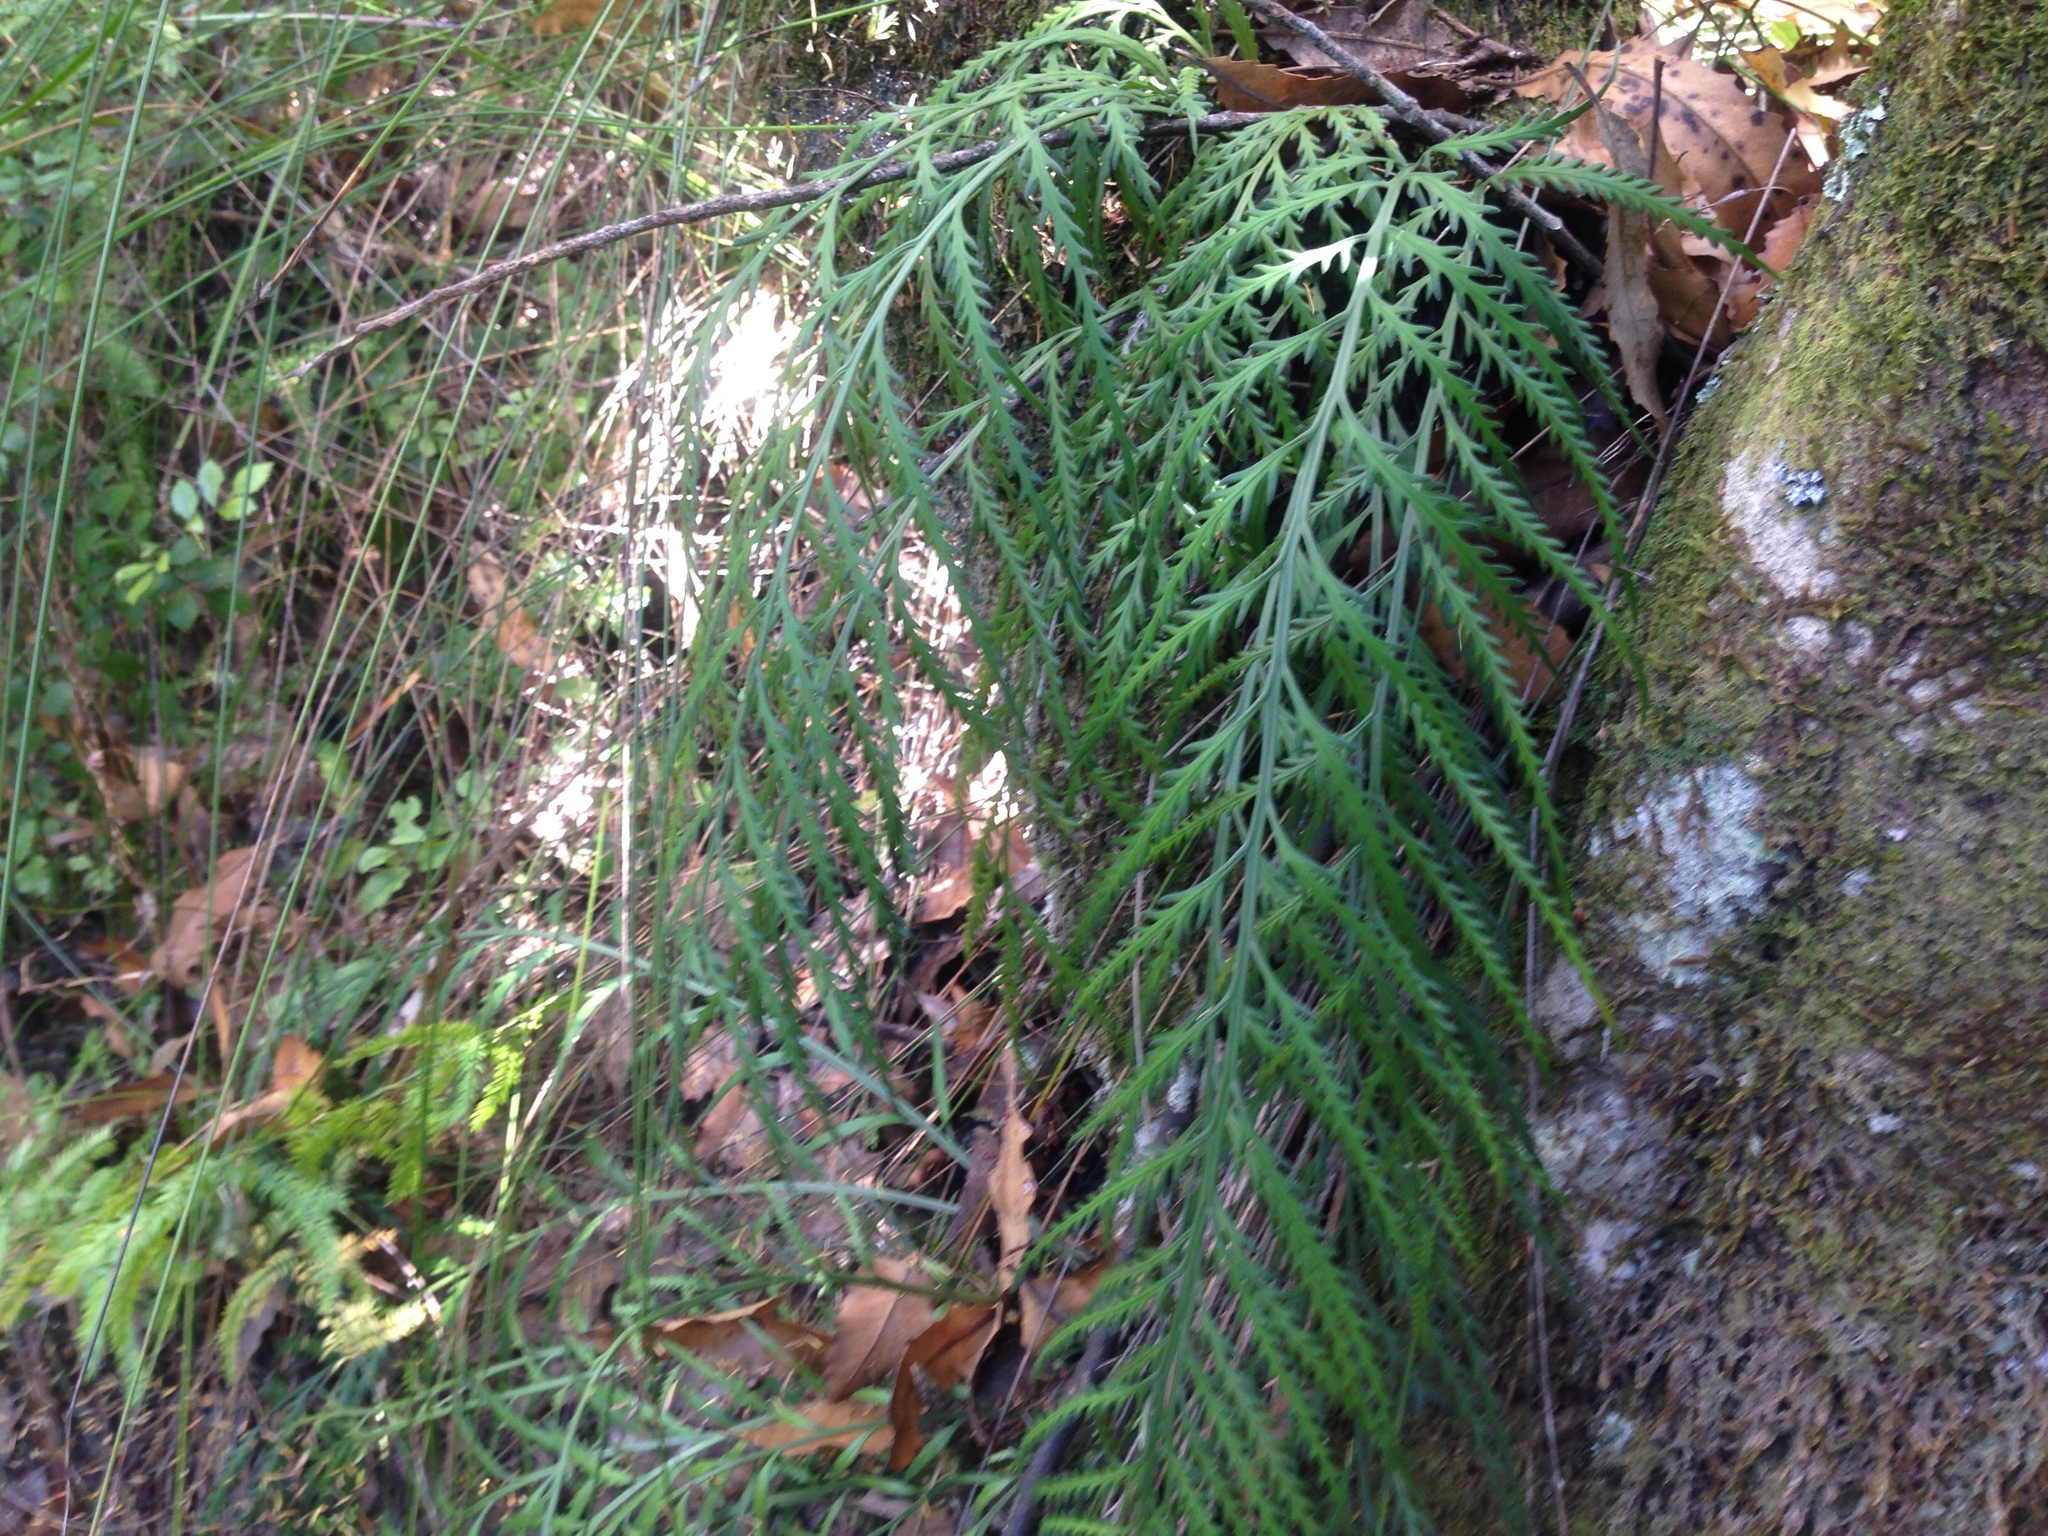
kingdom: Plantae
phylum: Tracheophyta
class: Polypodiopsida
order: Polypodiales
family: Aspleniaceae
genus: Asplenium
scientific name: Asplenium flaccidum
